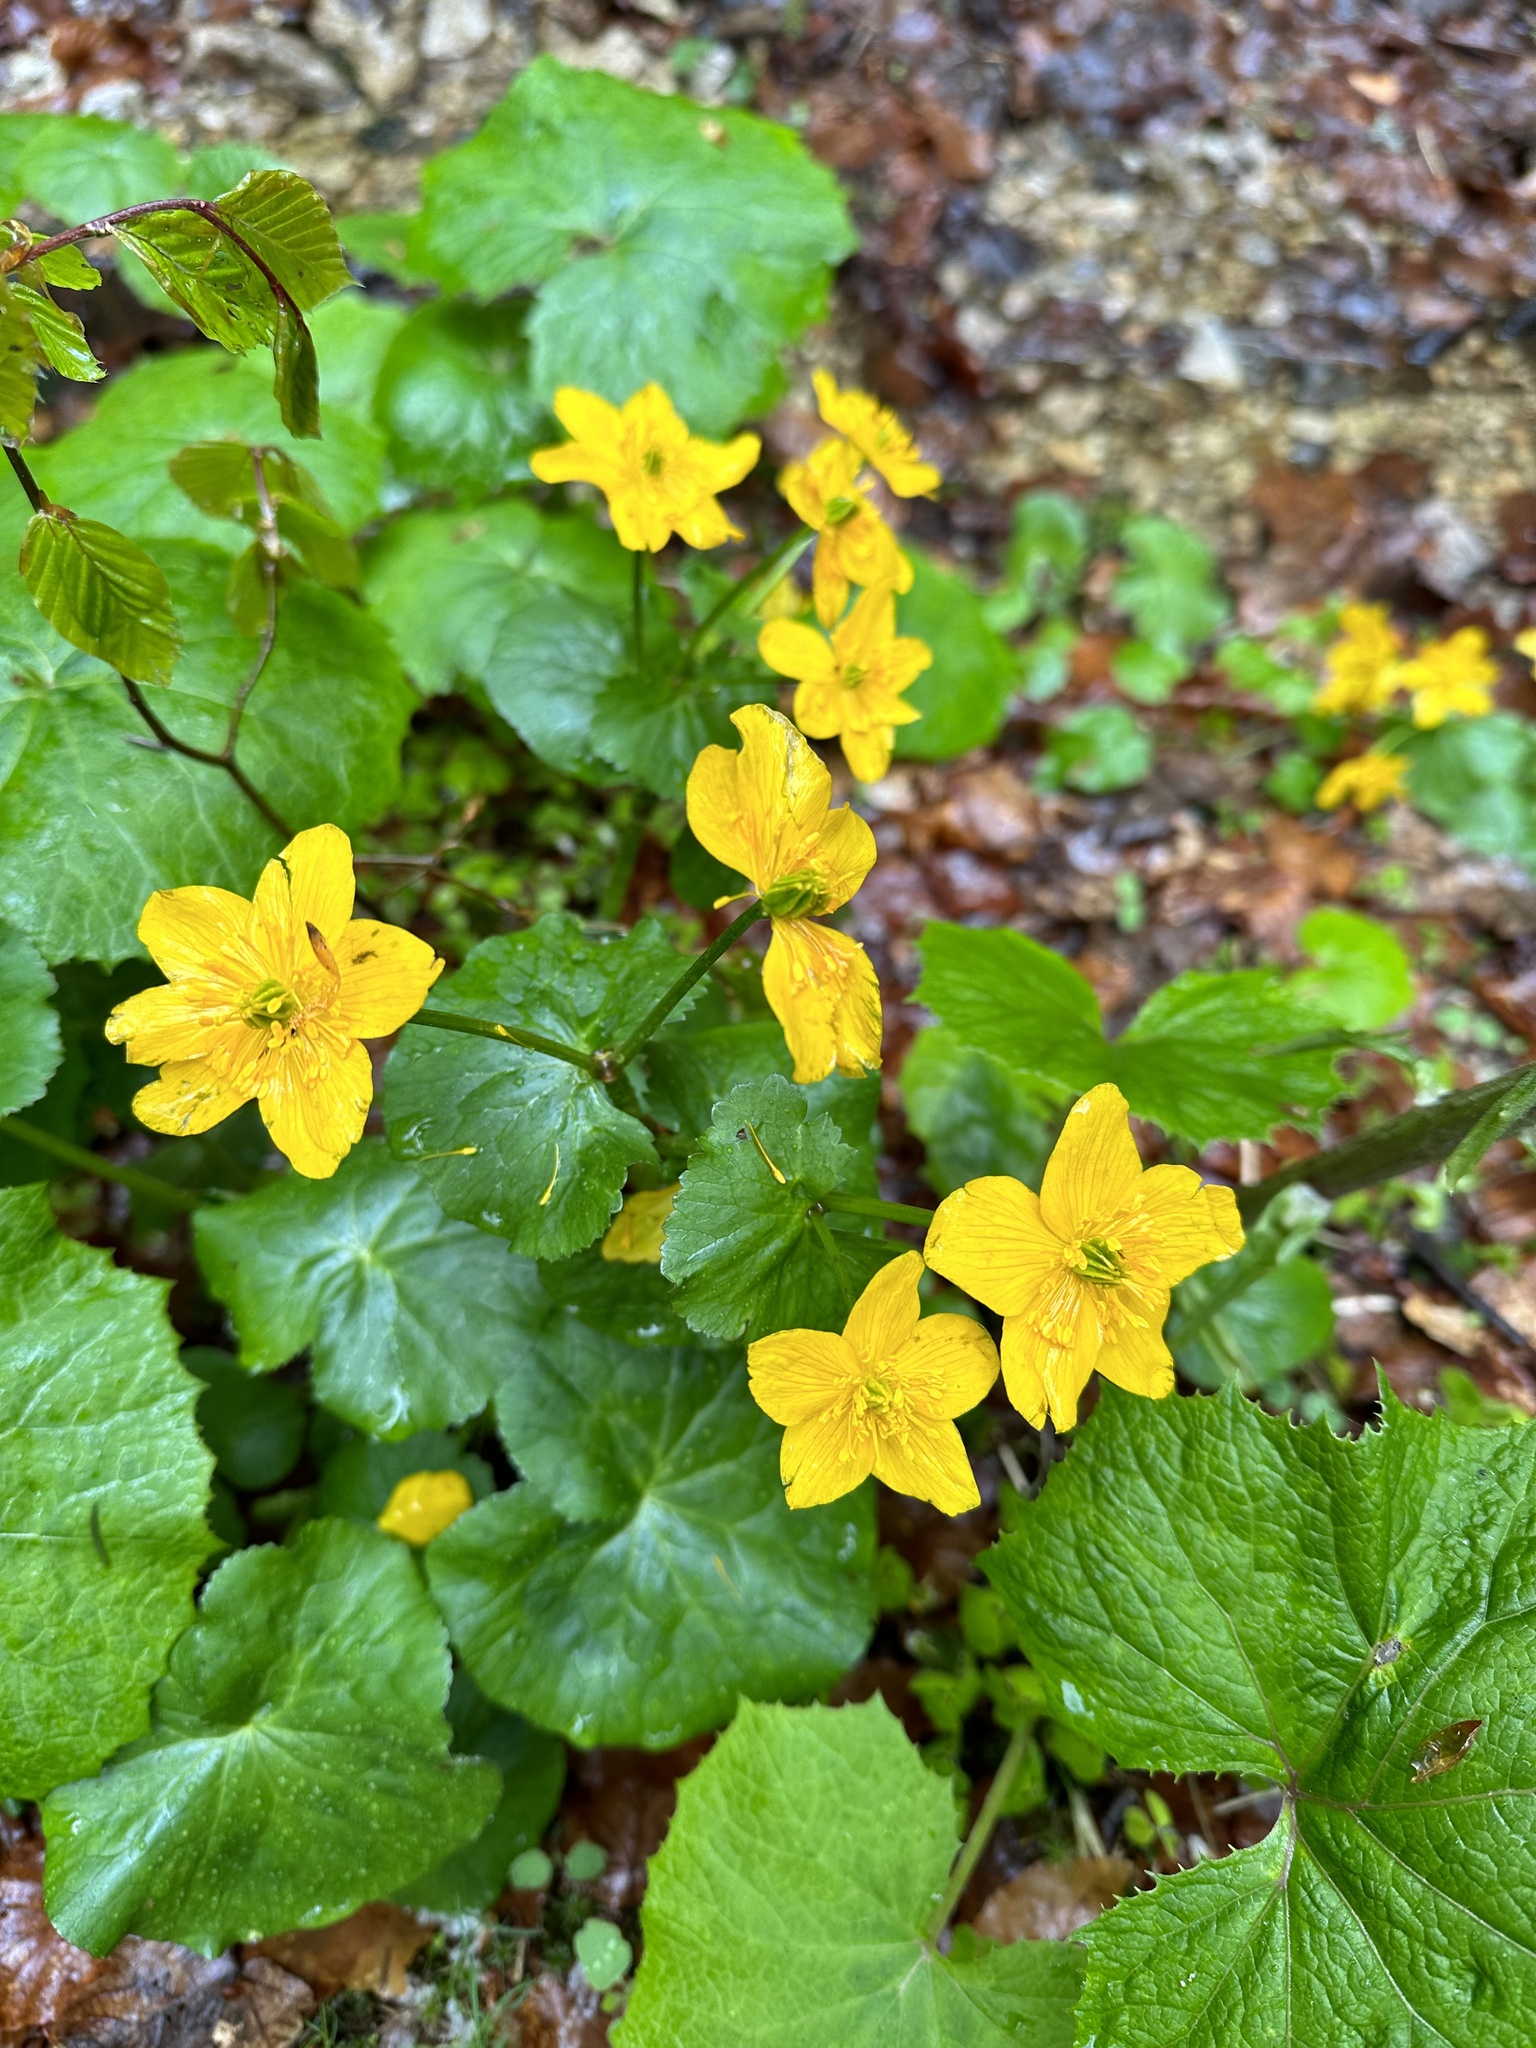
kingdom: Plantae
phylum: Tracheophyta
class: Magnoliopsida
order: Ranunculales
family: Ranunculaceae
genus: Caltha
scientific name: Caltha palustris
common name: Marsh marigold
